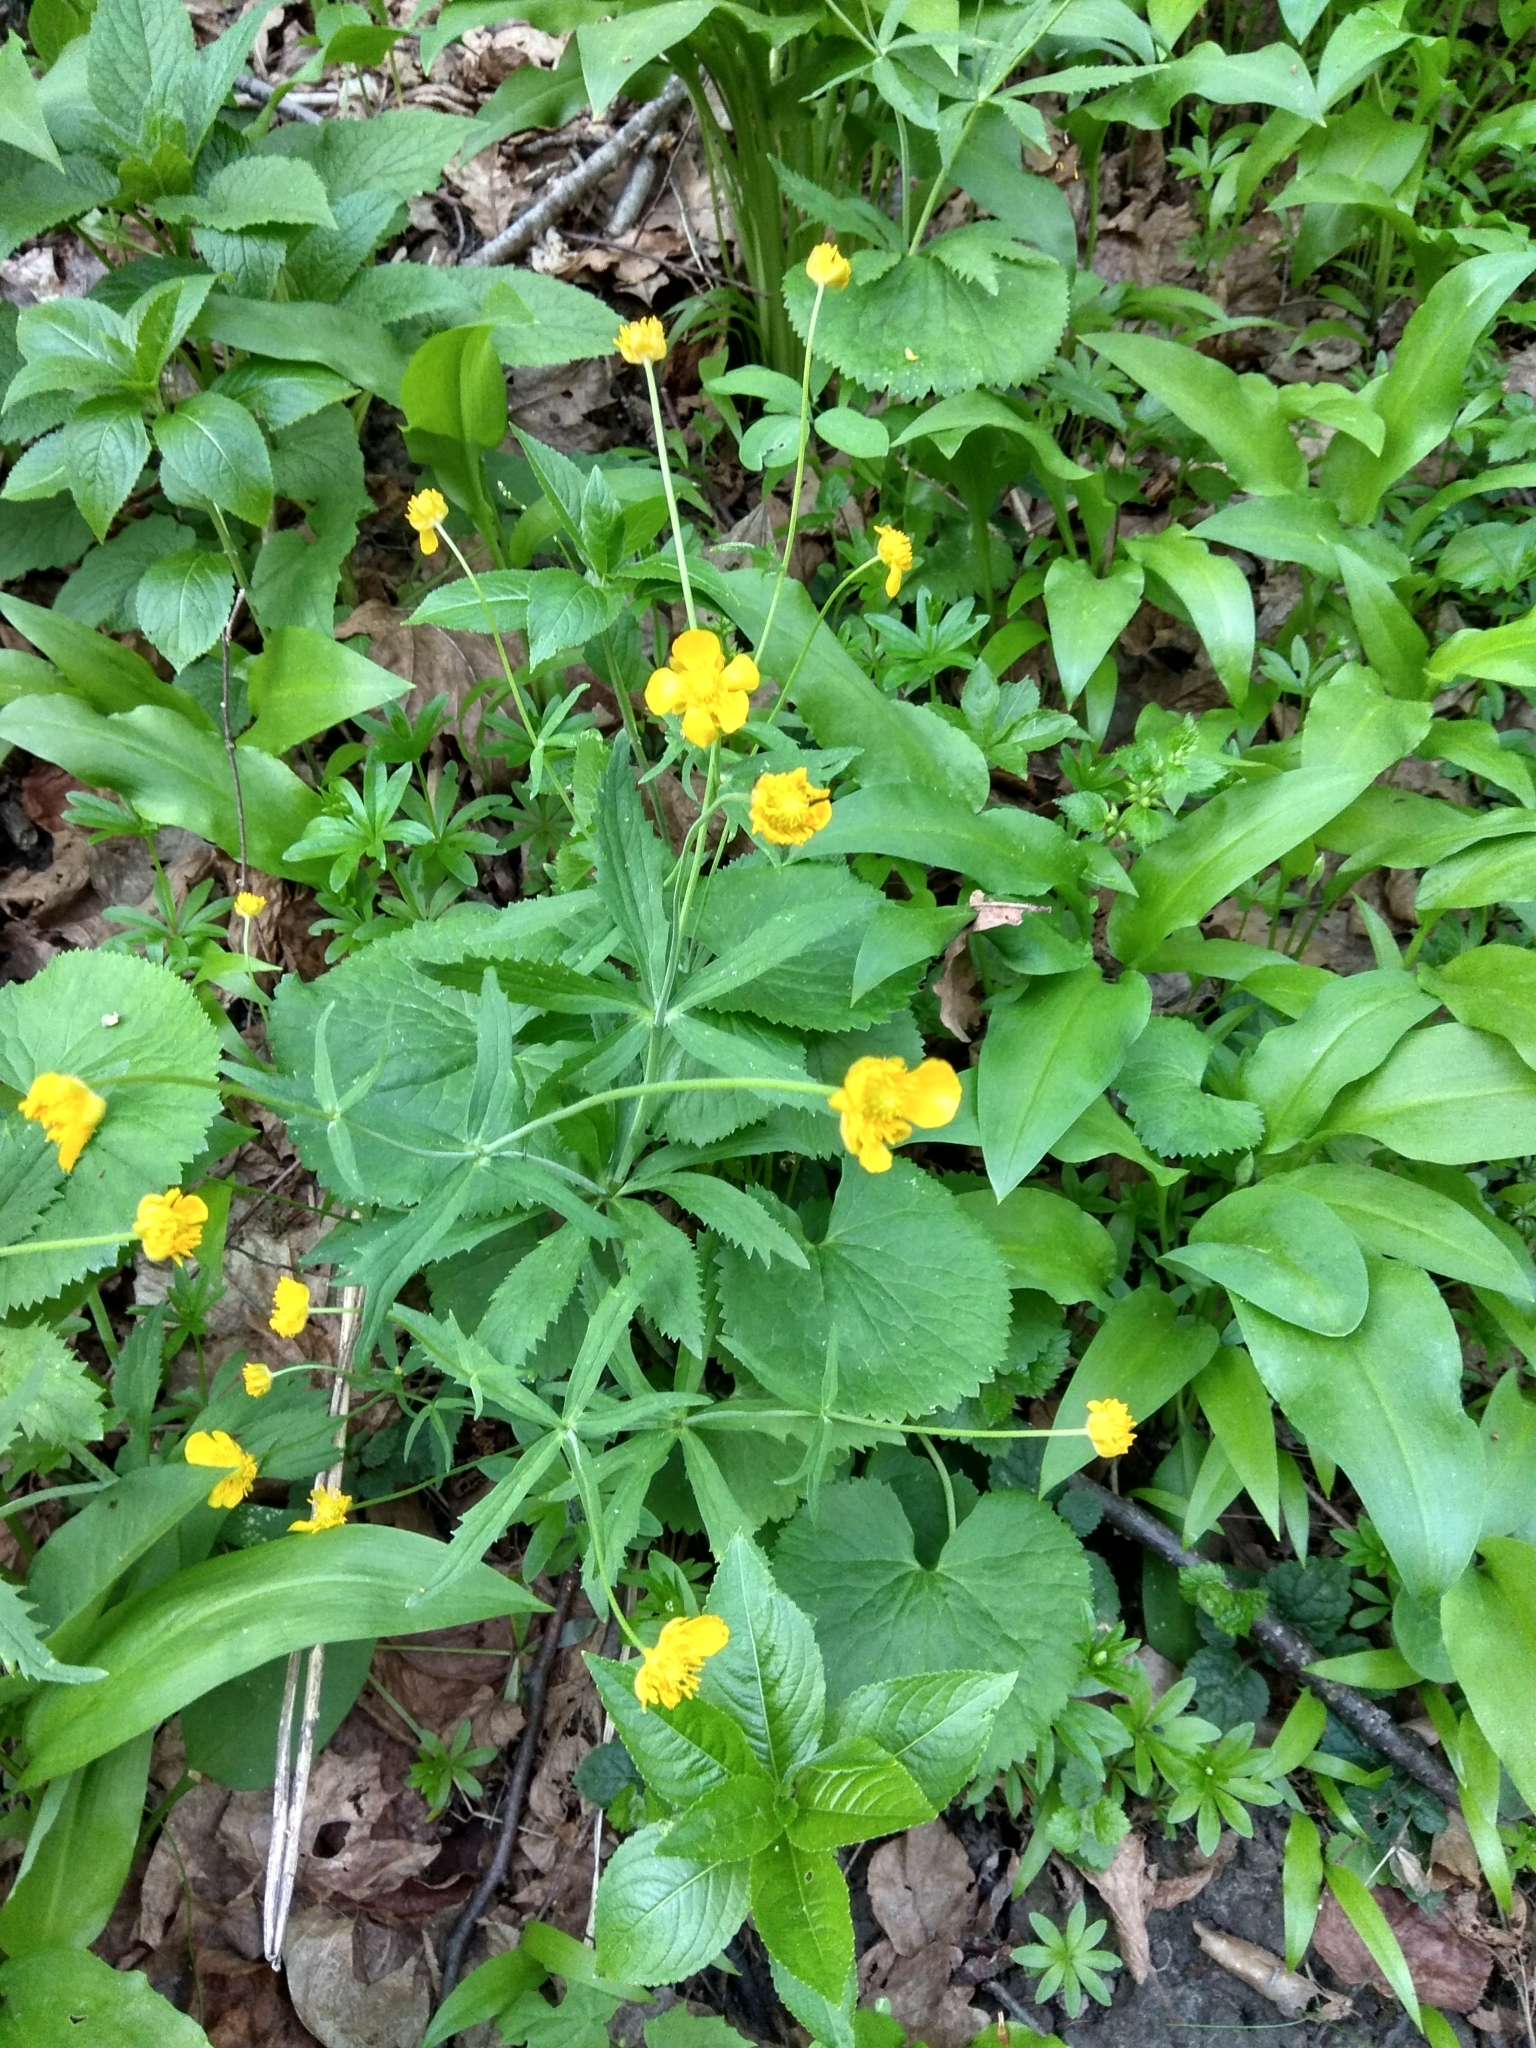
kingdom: Plantae
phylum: Tracheophyta
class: Magnoliopsida
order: Ranunculales
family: Ranunculaceae
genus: Ranunculus
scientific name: Ranunculus cassubicus
